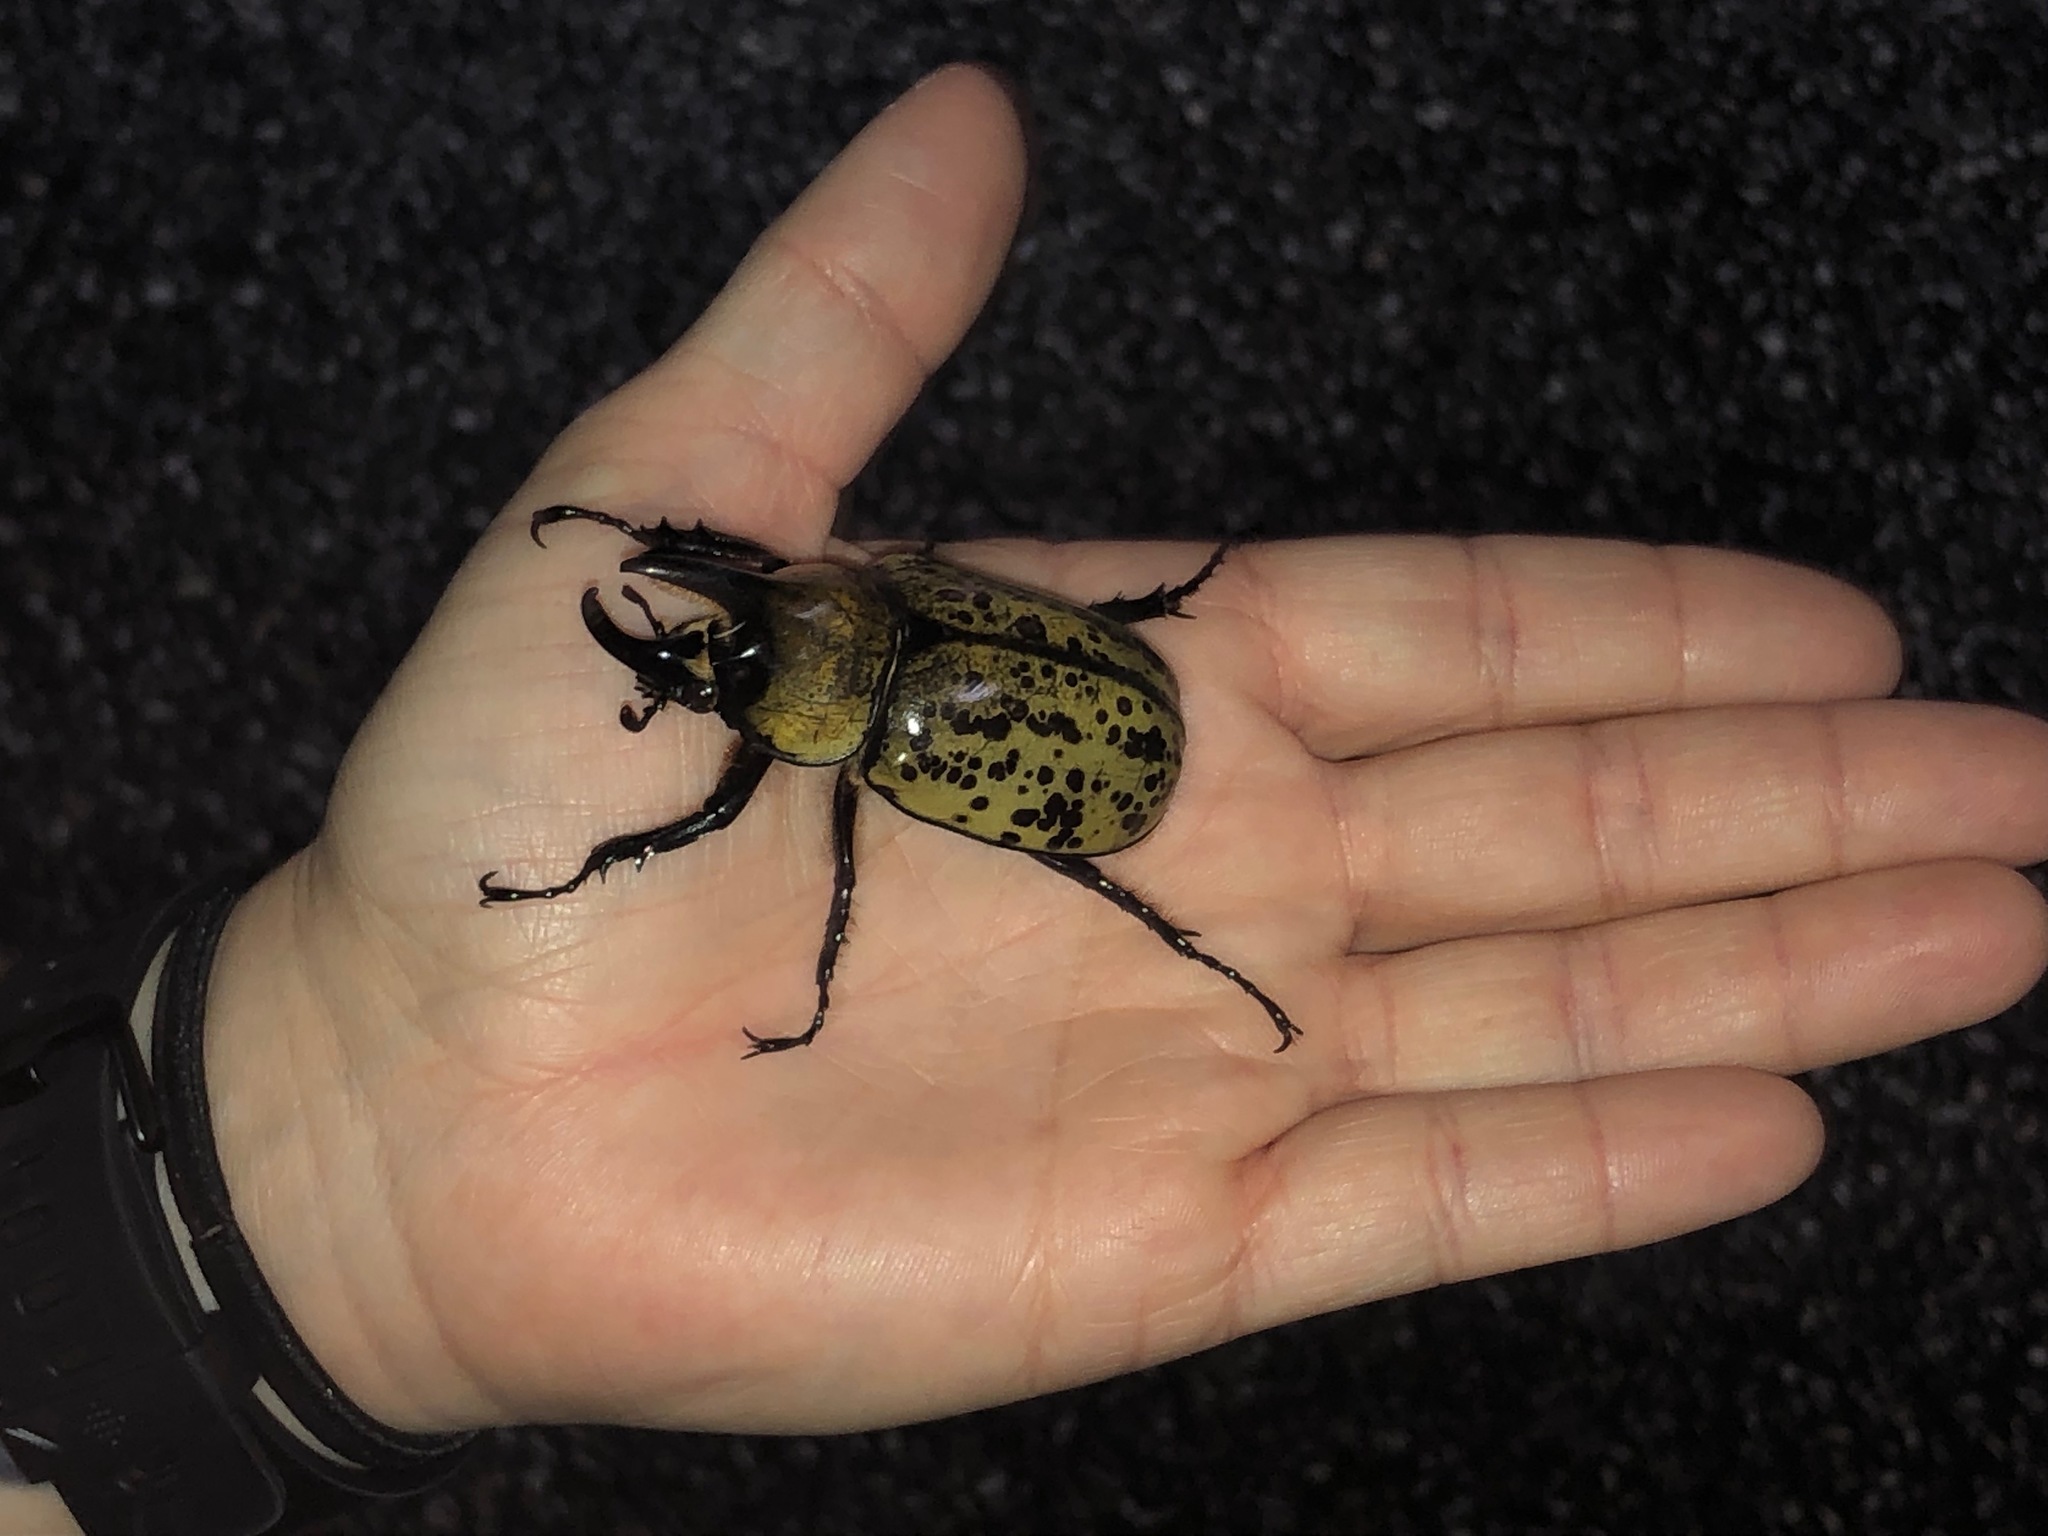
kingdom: Animalia
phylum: Arthropoda
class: Insecta
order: Coleoptera
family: Scarabaeidae
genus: Dynastes
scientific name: Dynastes tityus
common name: Eastern hercules beetle
